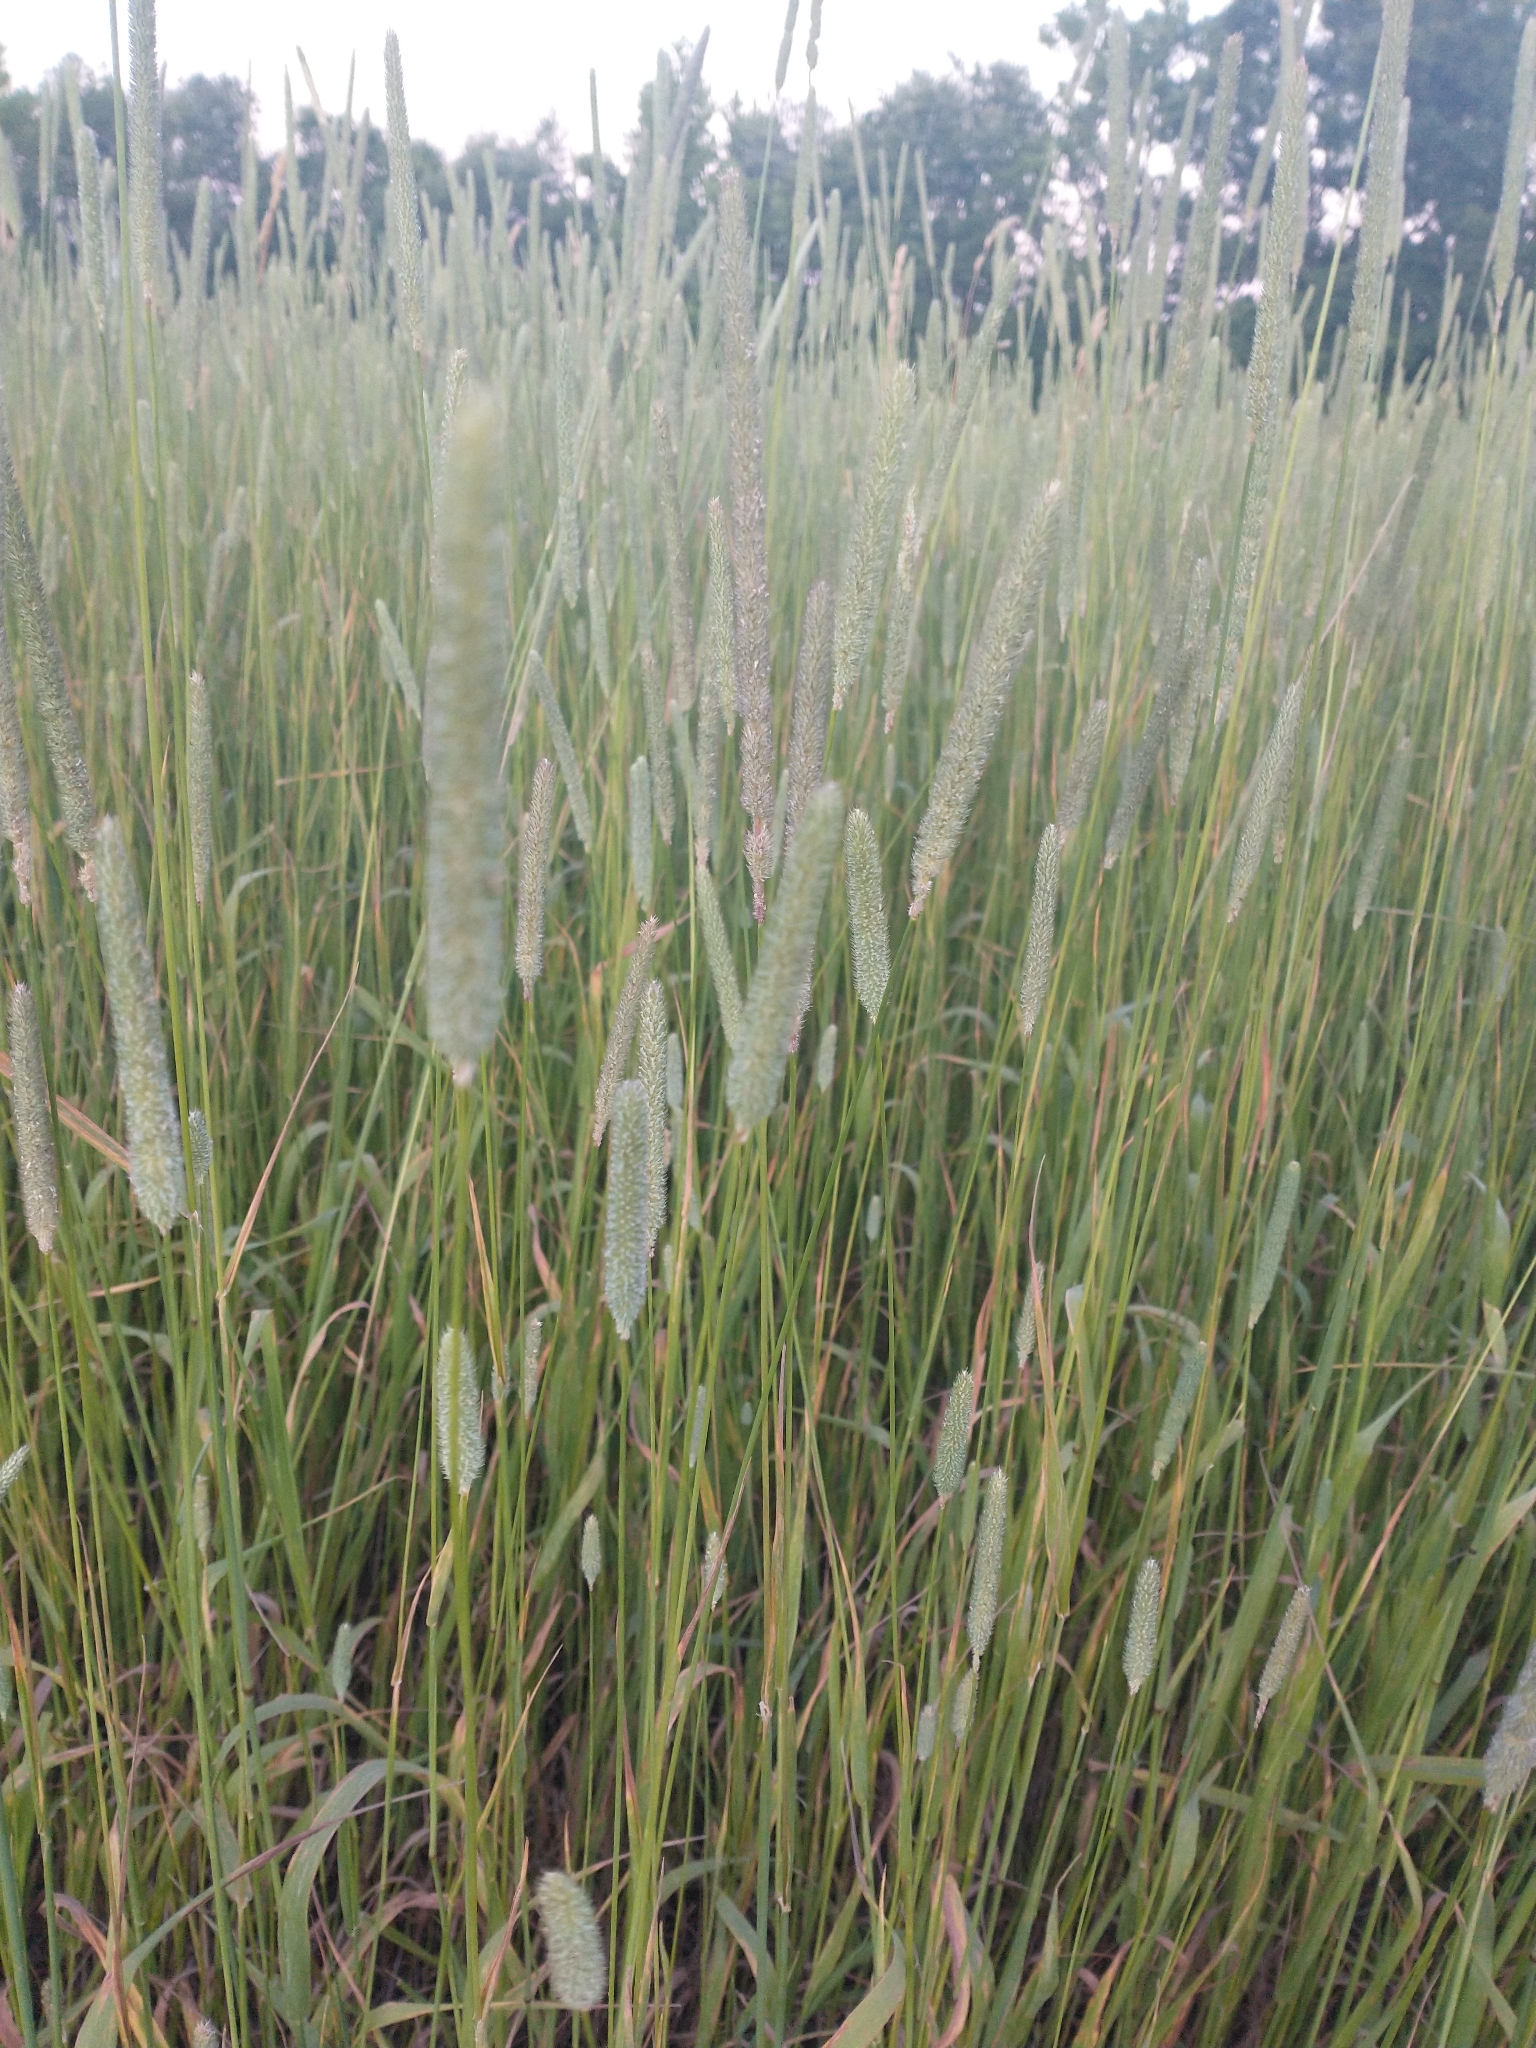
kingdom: Plantae
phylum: Tracheophyta
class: Liliopsida
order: Poales
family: Poaceae
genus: Phleum
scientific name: Phleum pratense
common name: Timothy grass
